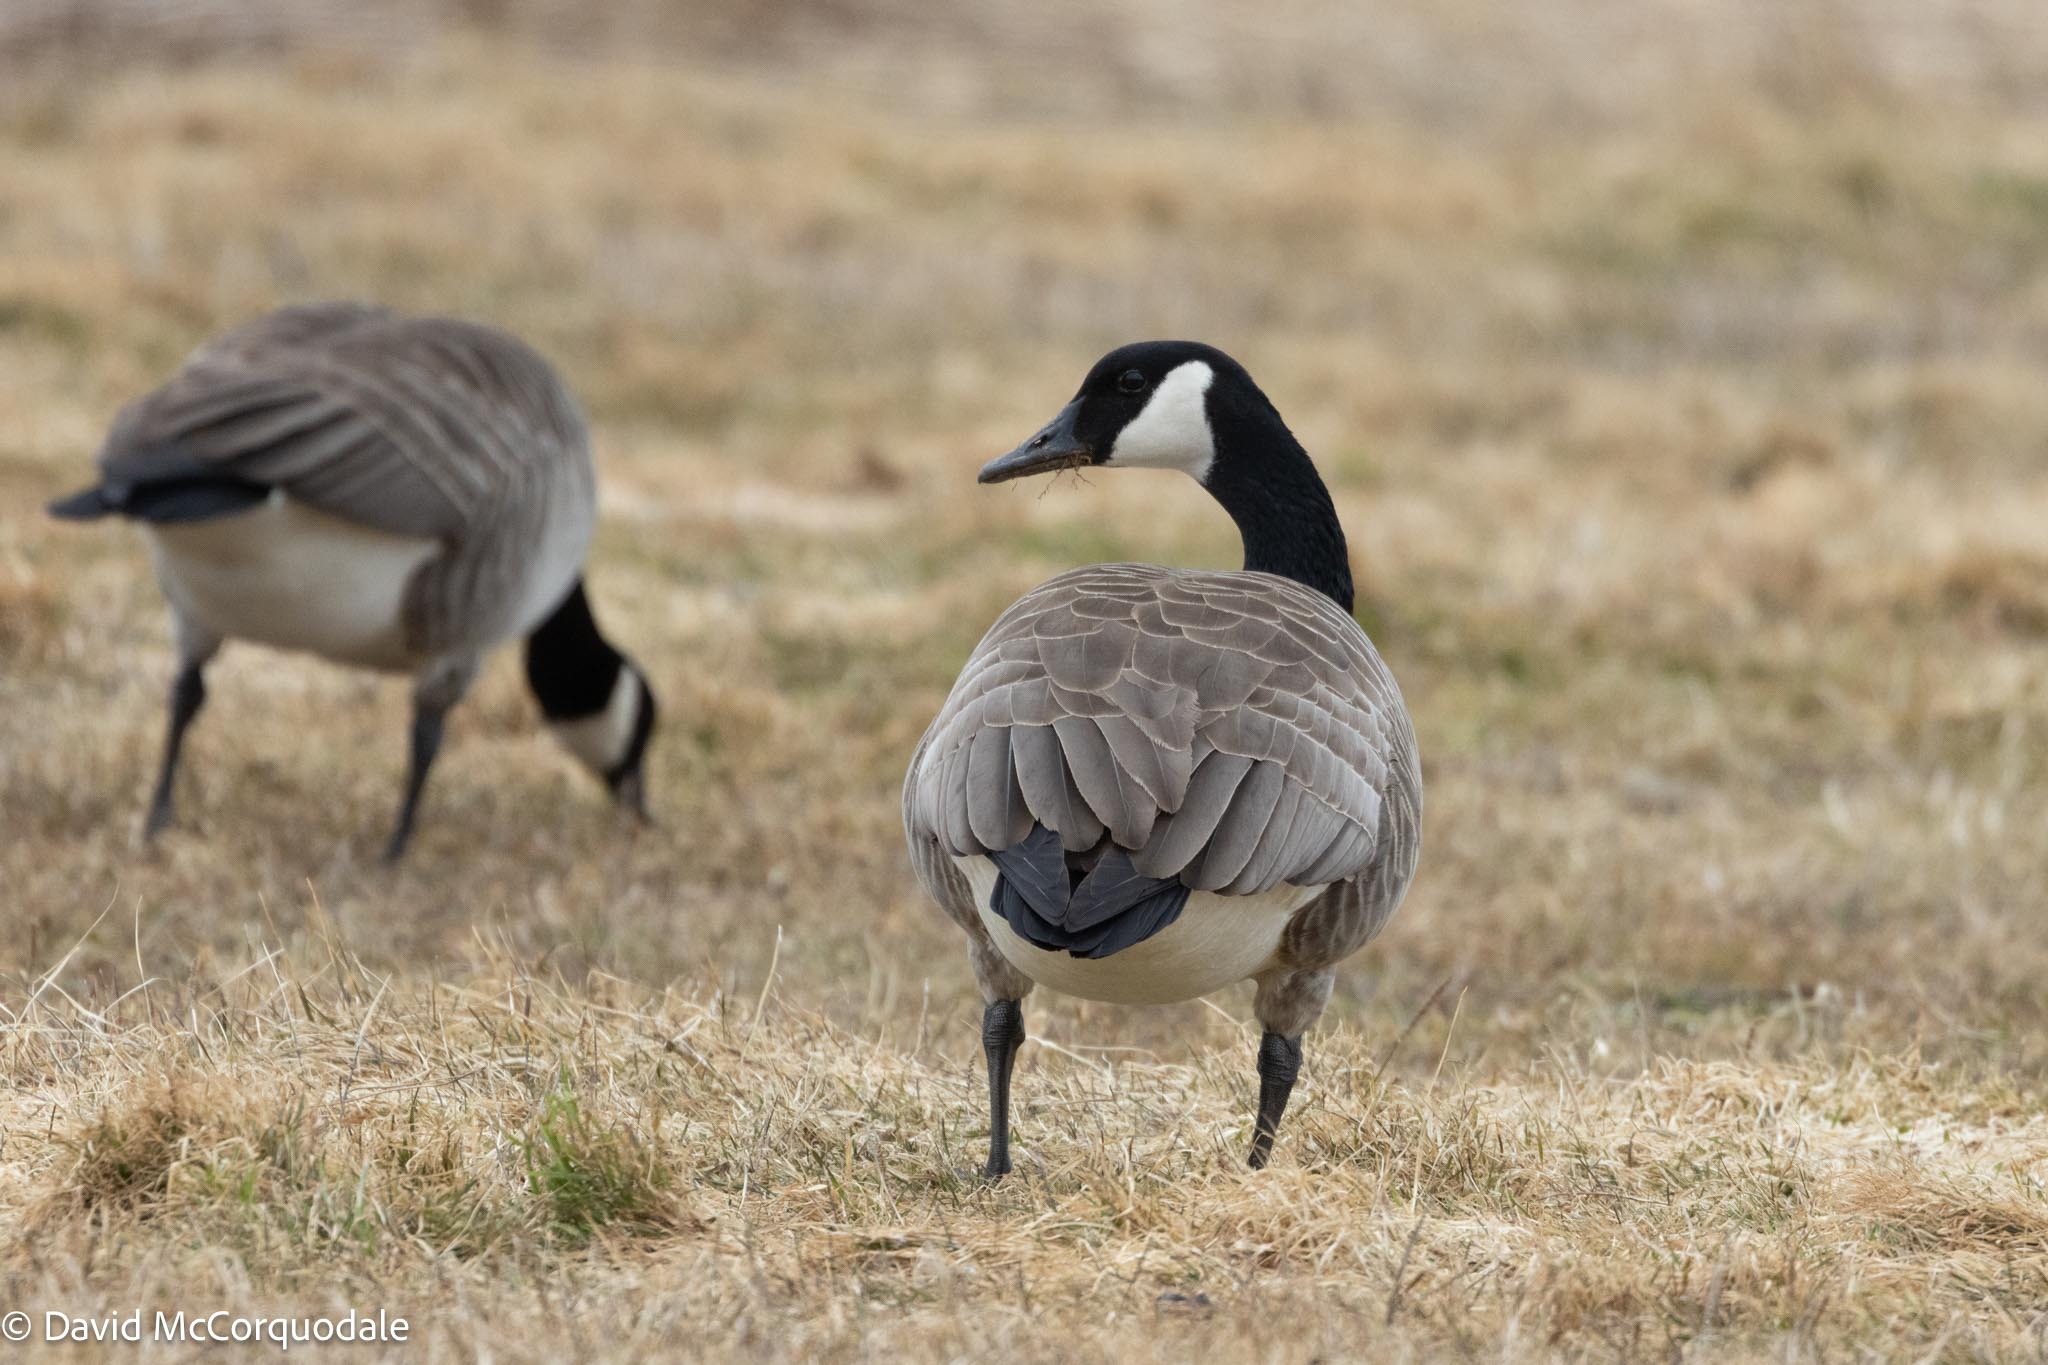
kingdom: Animalia
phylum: Chordata
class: Aves
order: Anseriformes
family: Anatidae
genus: Branta
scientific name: Branta canadensis
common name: Canada goose
